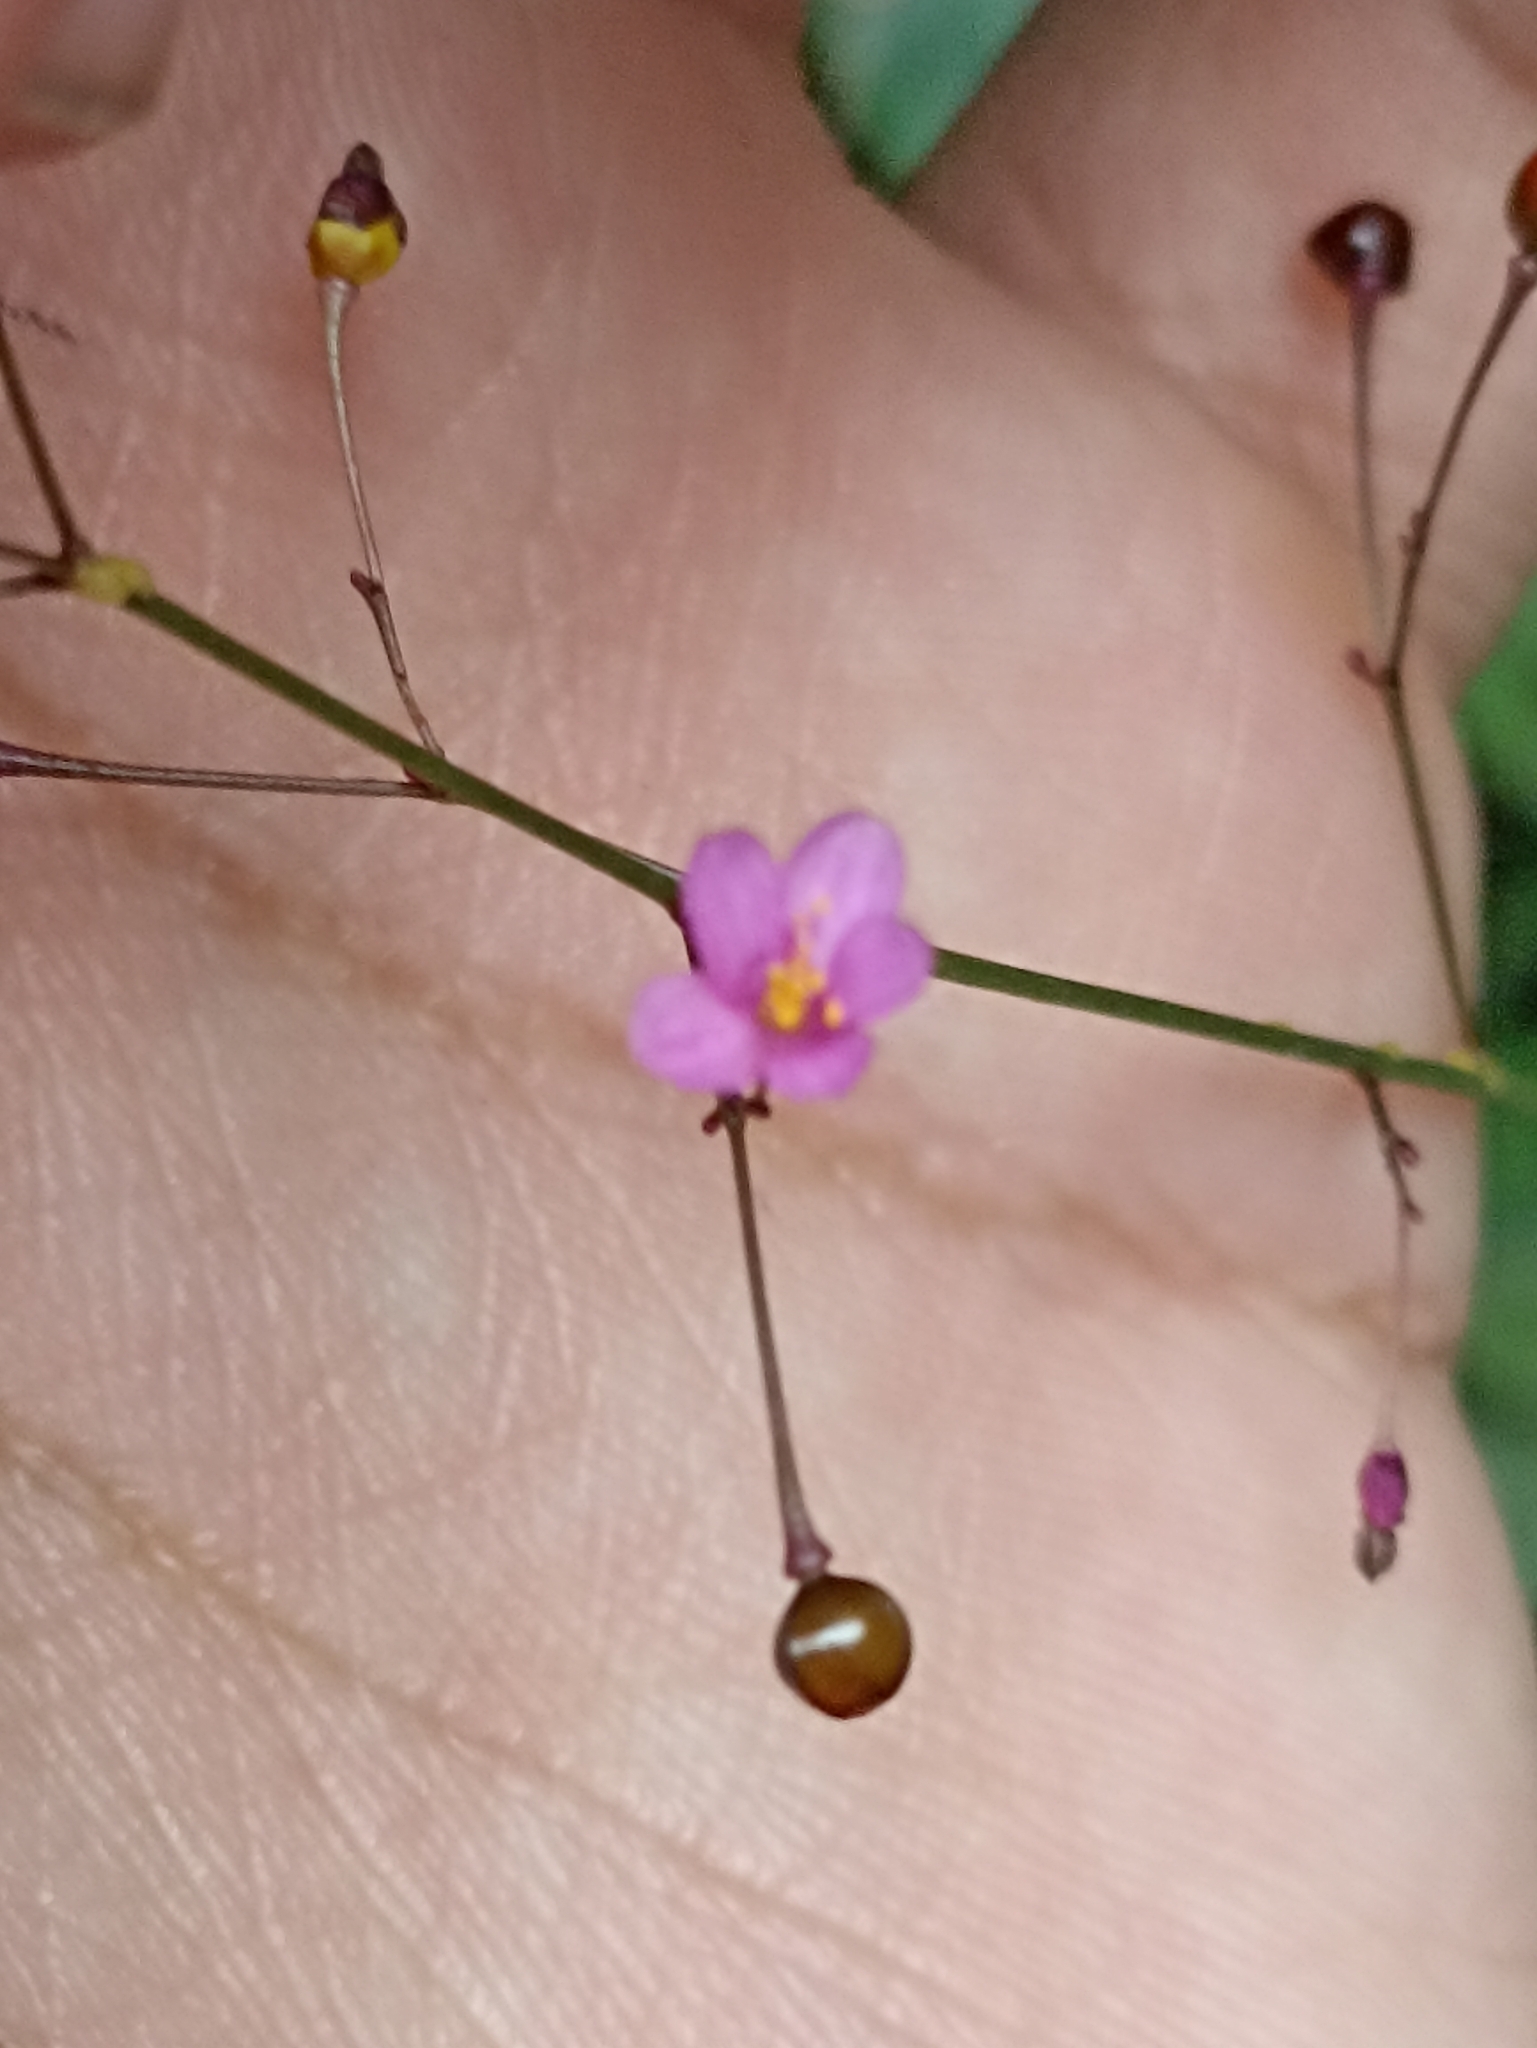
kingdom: Plantae
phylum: Tracheophyta
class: Magnoliopsida
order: Caryophyllales
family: Talinaceae
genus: Talinum
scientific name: Talinum paniculatum
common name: Jewels of opar
